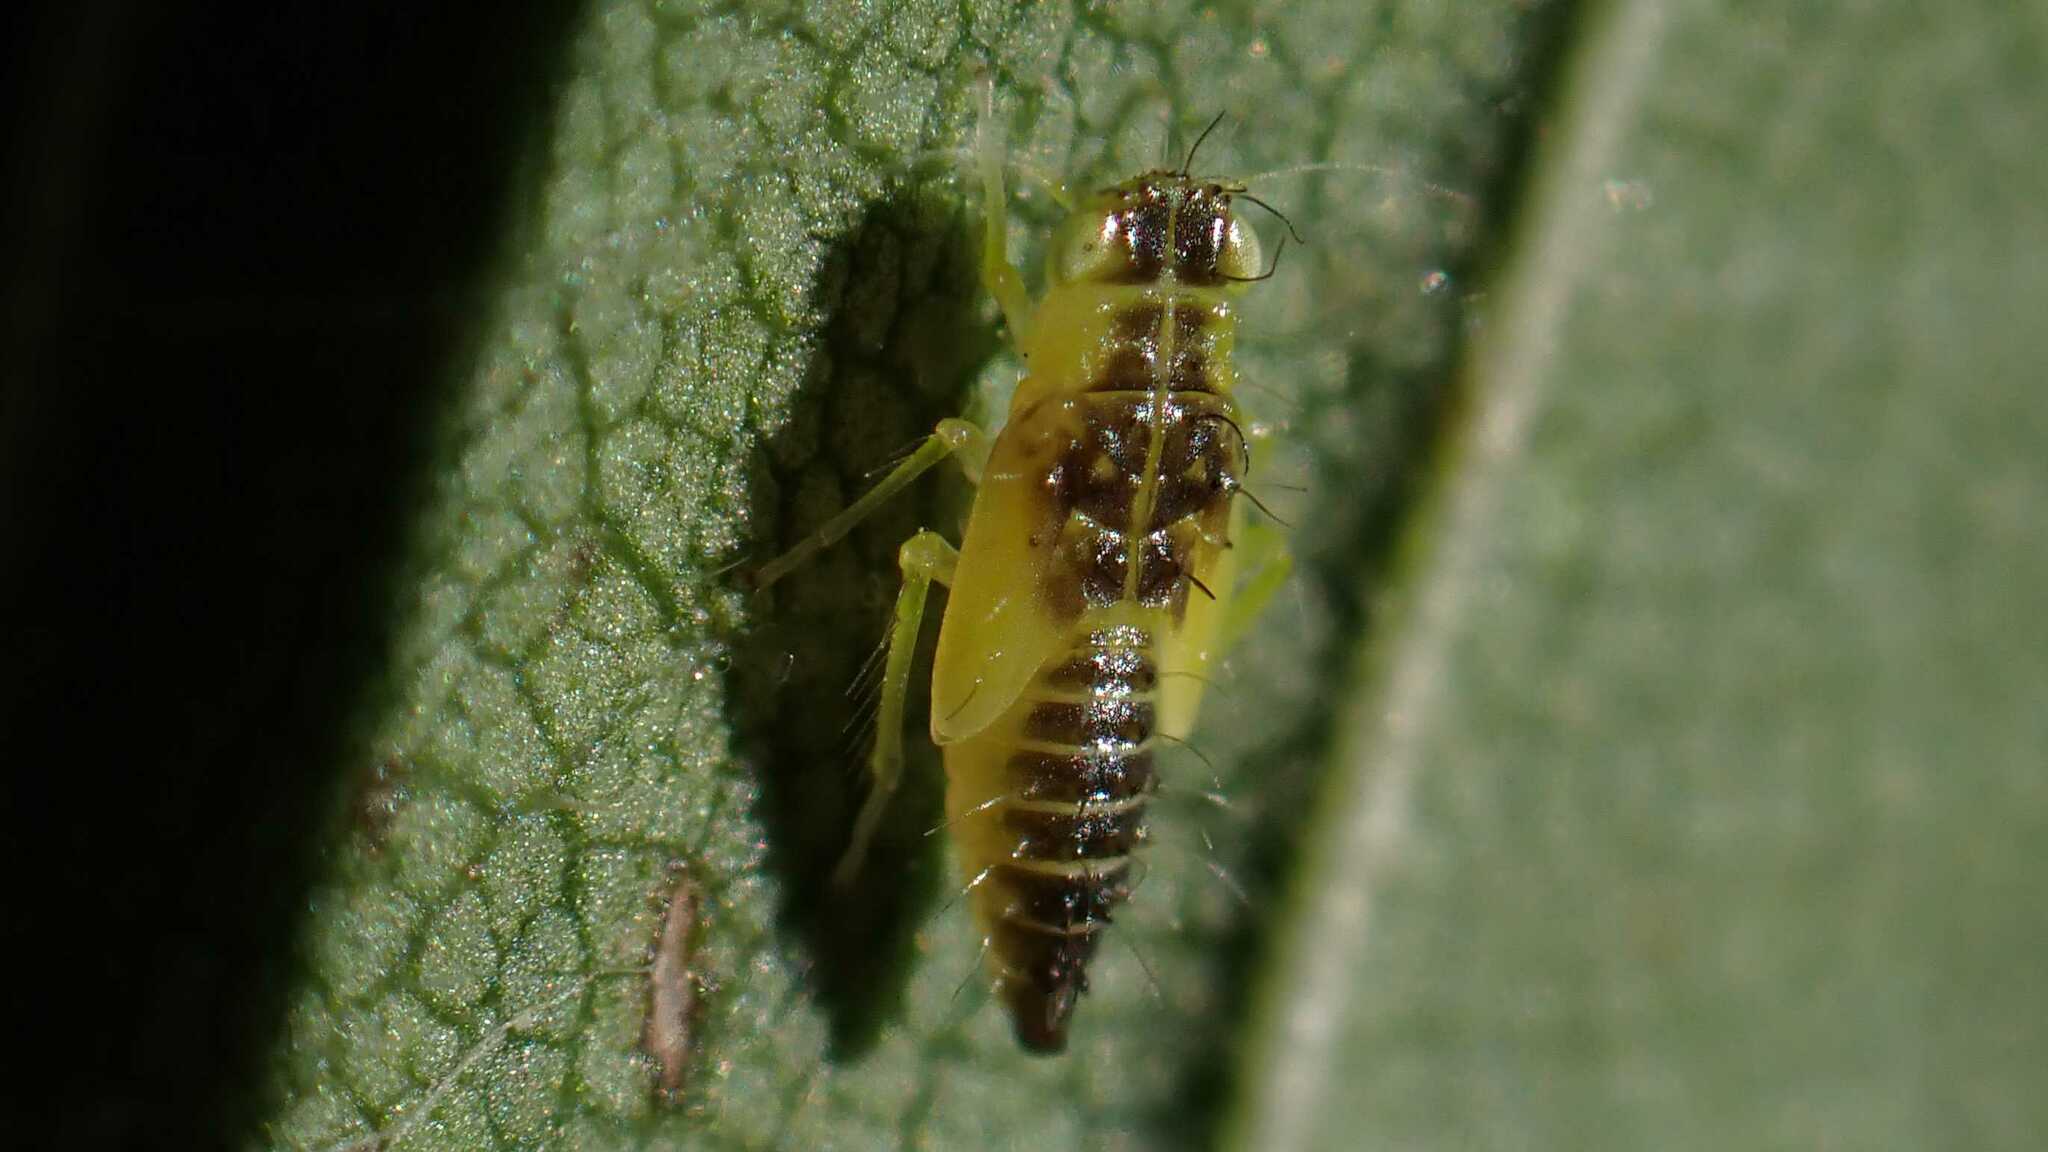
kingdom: Animalia
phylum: Arthropoda
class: Insecta
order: Hemiptera
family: Cicadellidae
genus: Ribautiana
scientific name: Ribautiana
